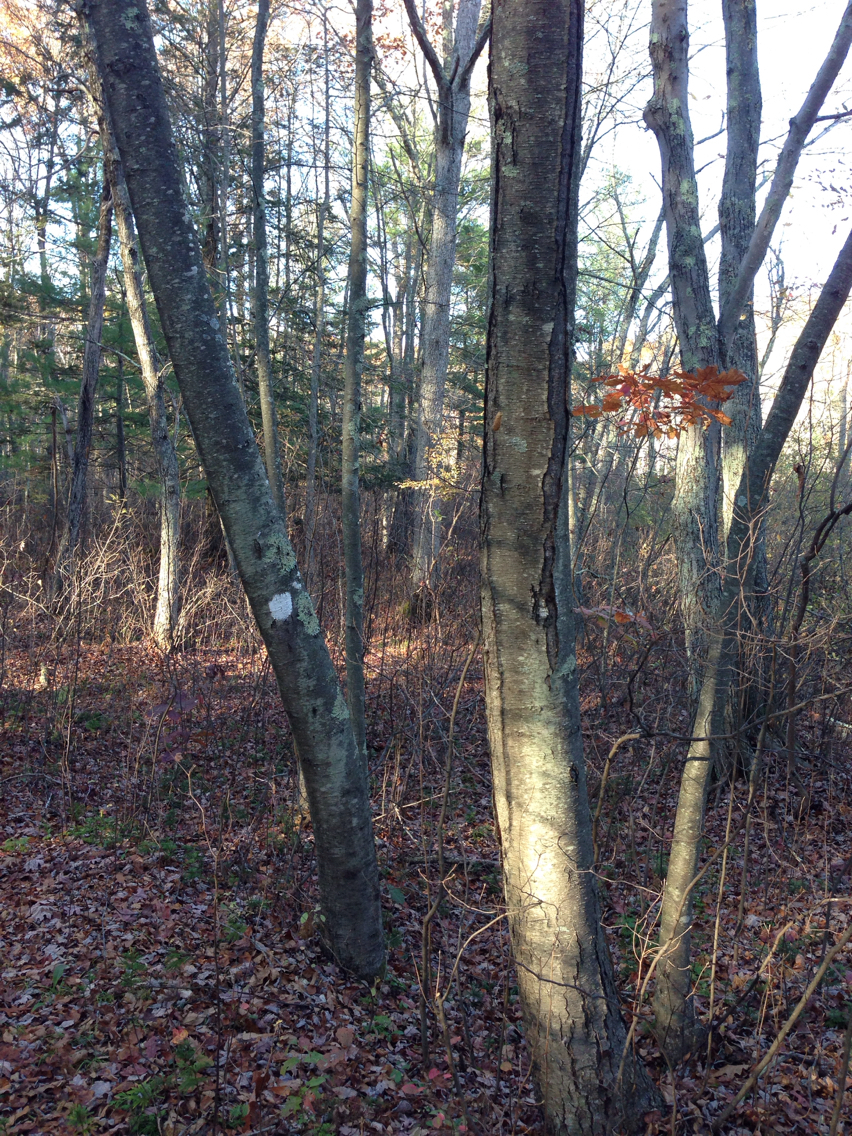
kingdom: Plantae
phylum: Tracheophyta
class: Magnoliopsida
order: Fagales
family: Betulaceae
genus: Betula
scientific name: Betula lenta
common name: Black birch
